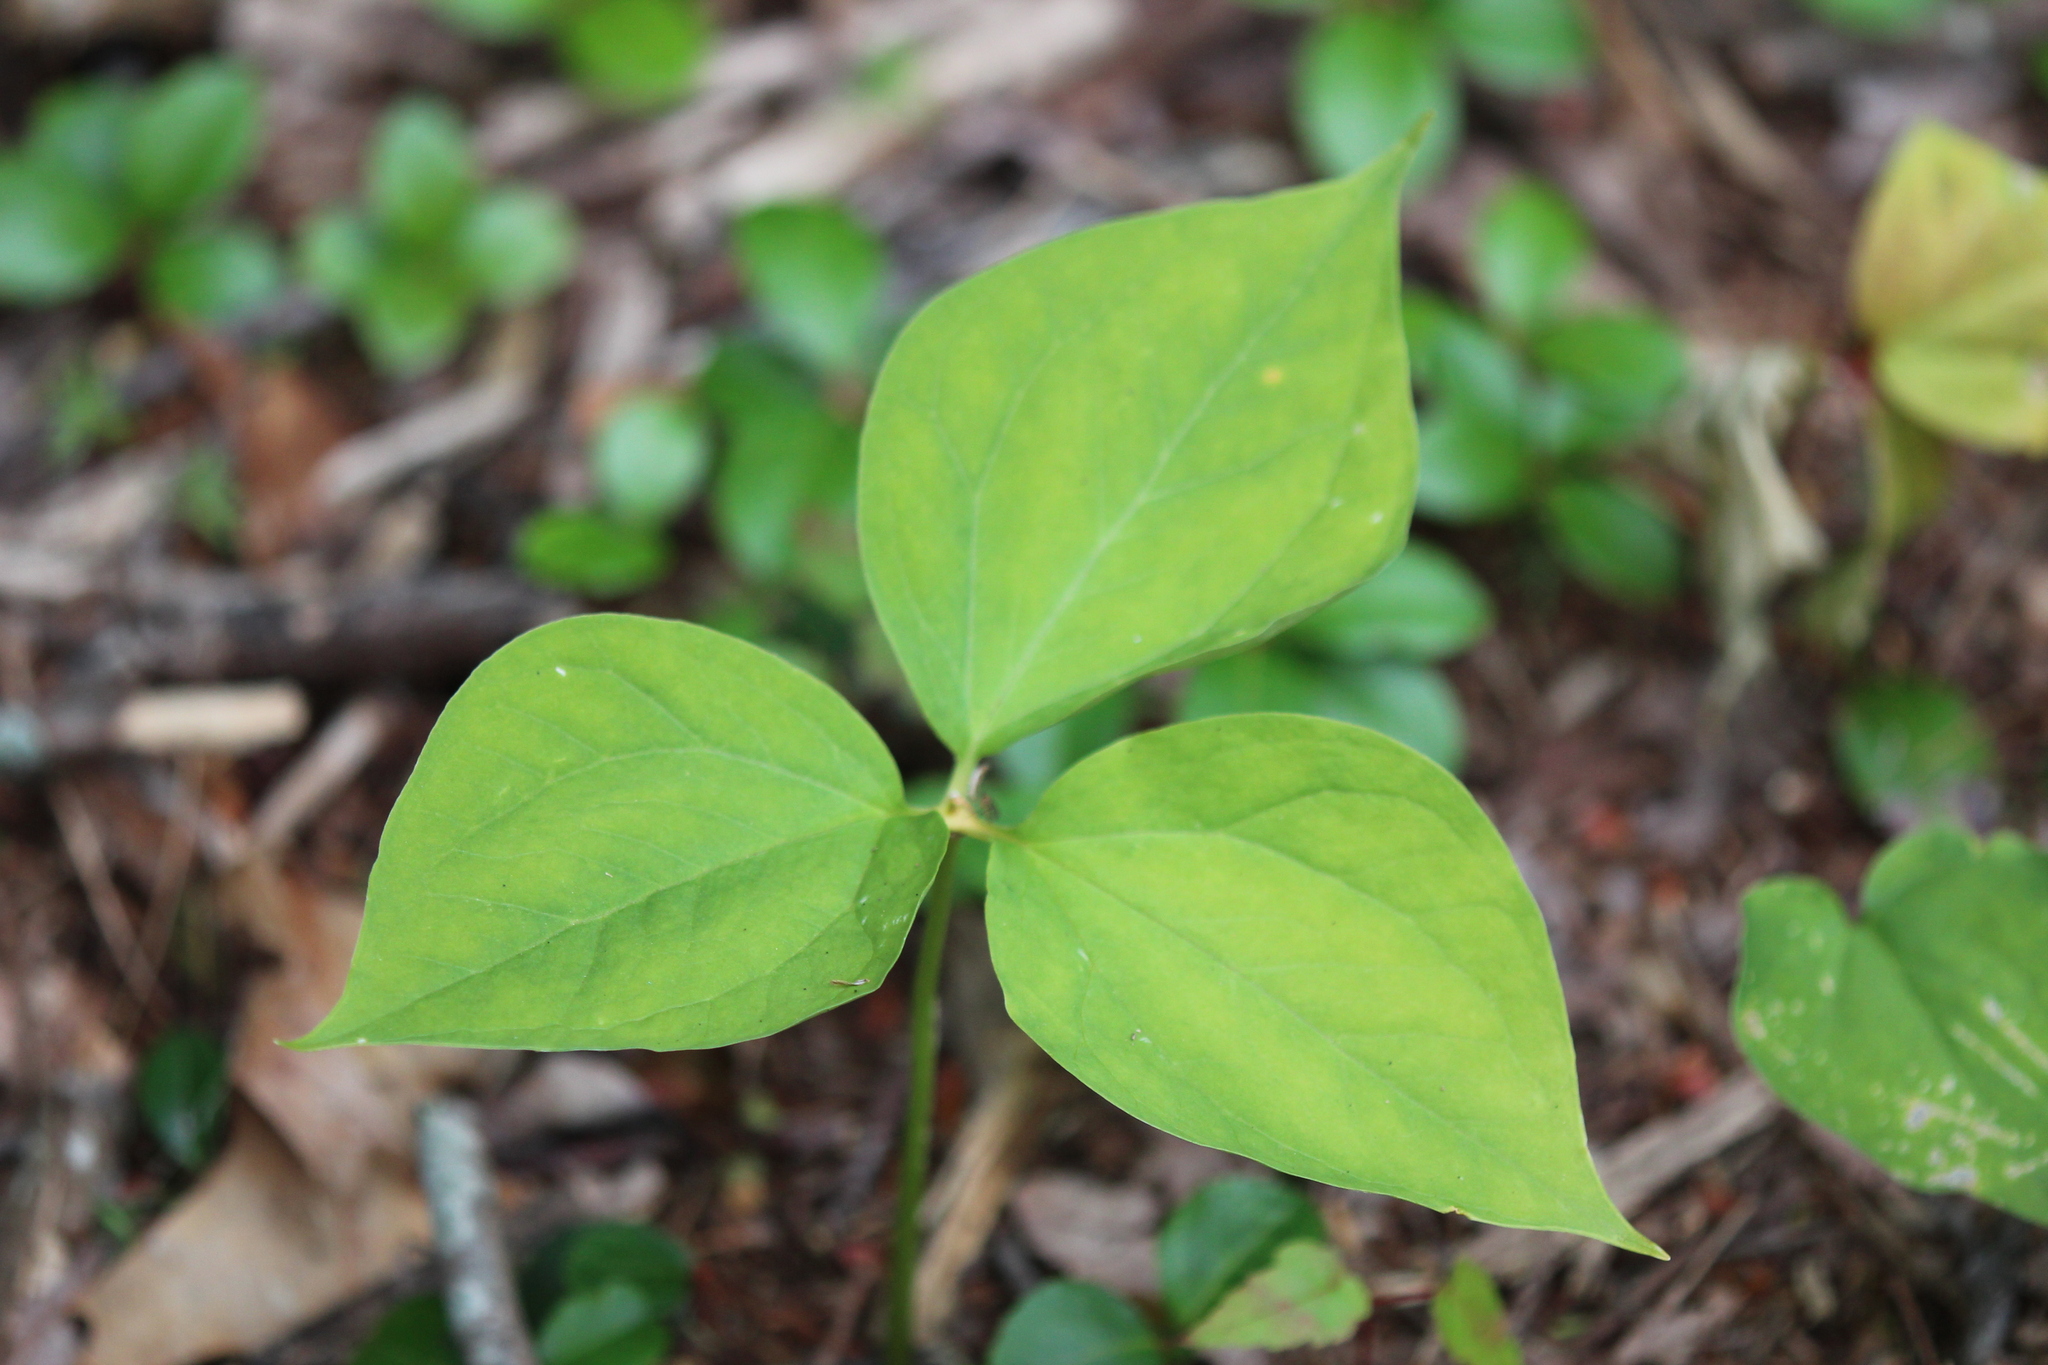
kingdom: Plantae
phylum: Tracheophyta
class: Liliopsida
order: Liliales
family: Melanthiaceae
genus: Trillium
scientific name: Trillium undulatum
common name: Paint trillium
